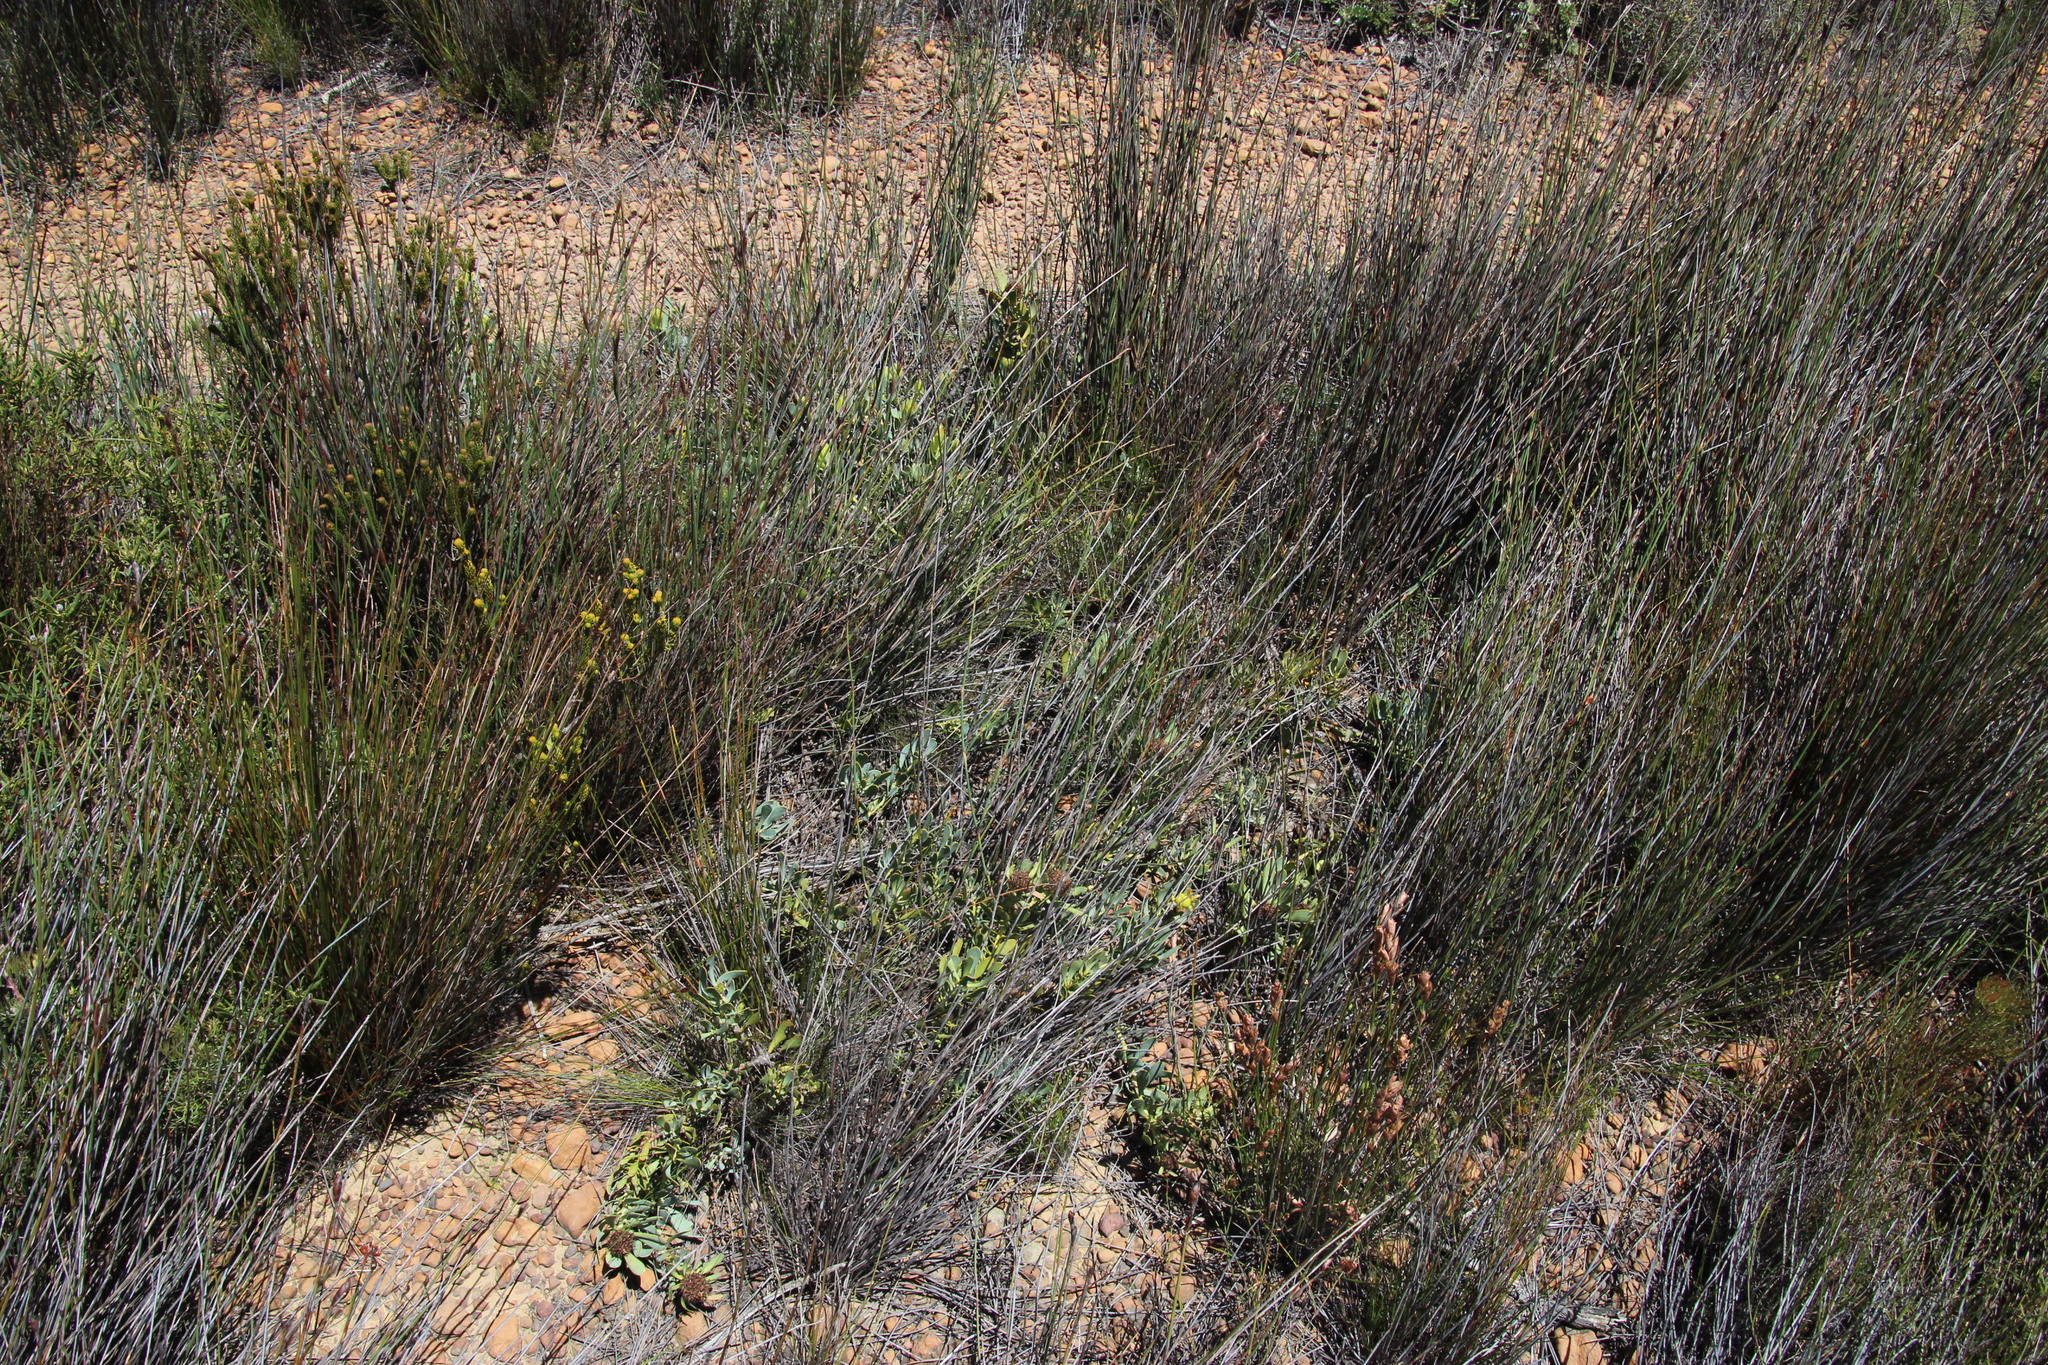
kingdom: Plantae
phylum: Tracheophyta
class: Magnoliopsida
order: Proteales
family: Proteaceae
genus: Leucadendron
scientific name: Leucadendron arcuatum
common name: Red-edge conebush
